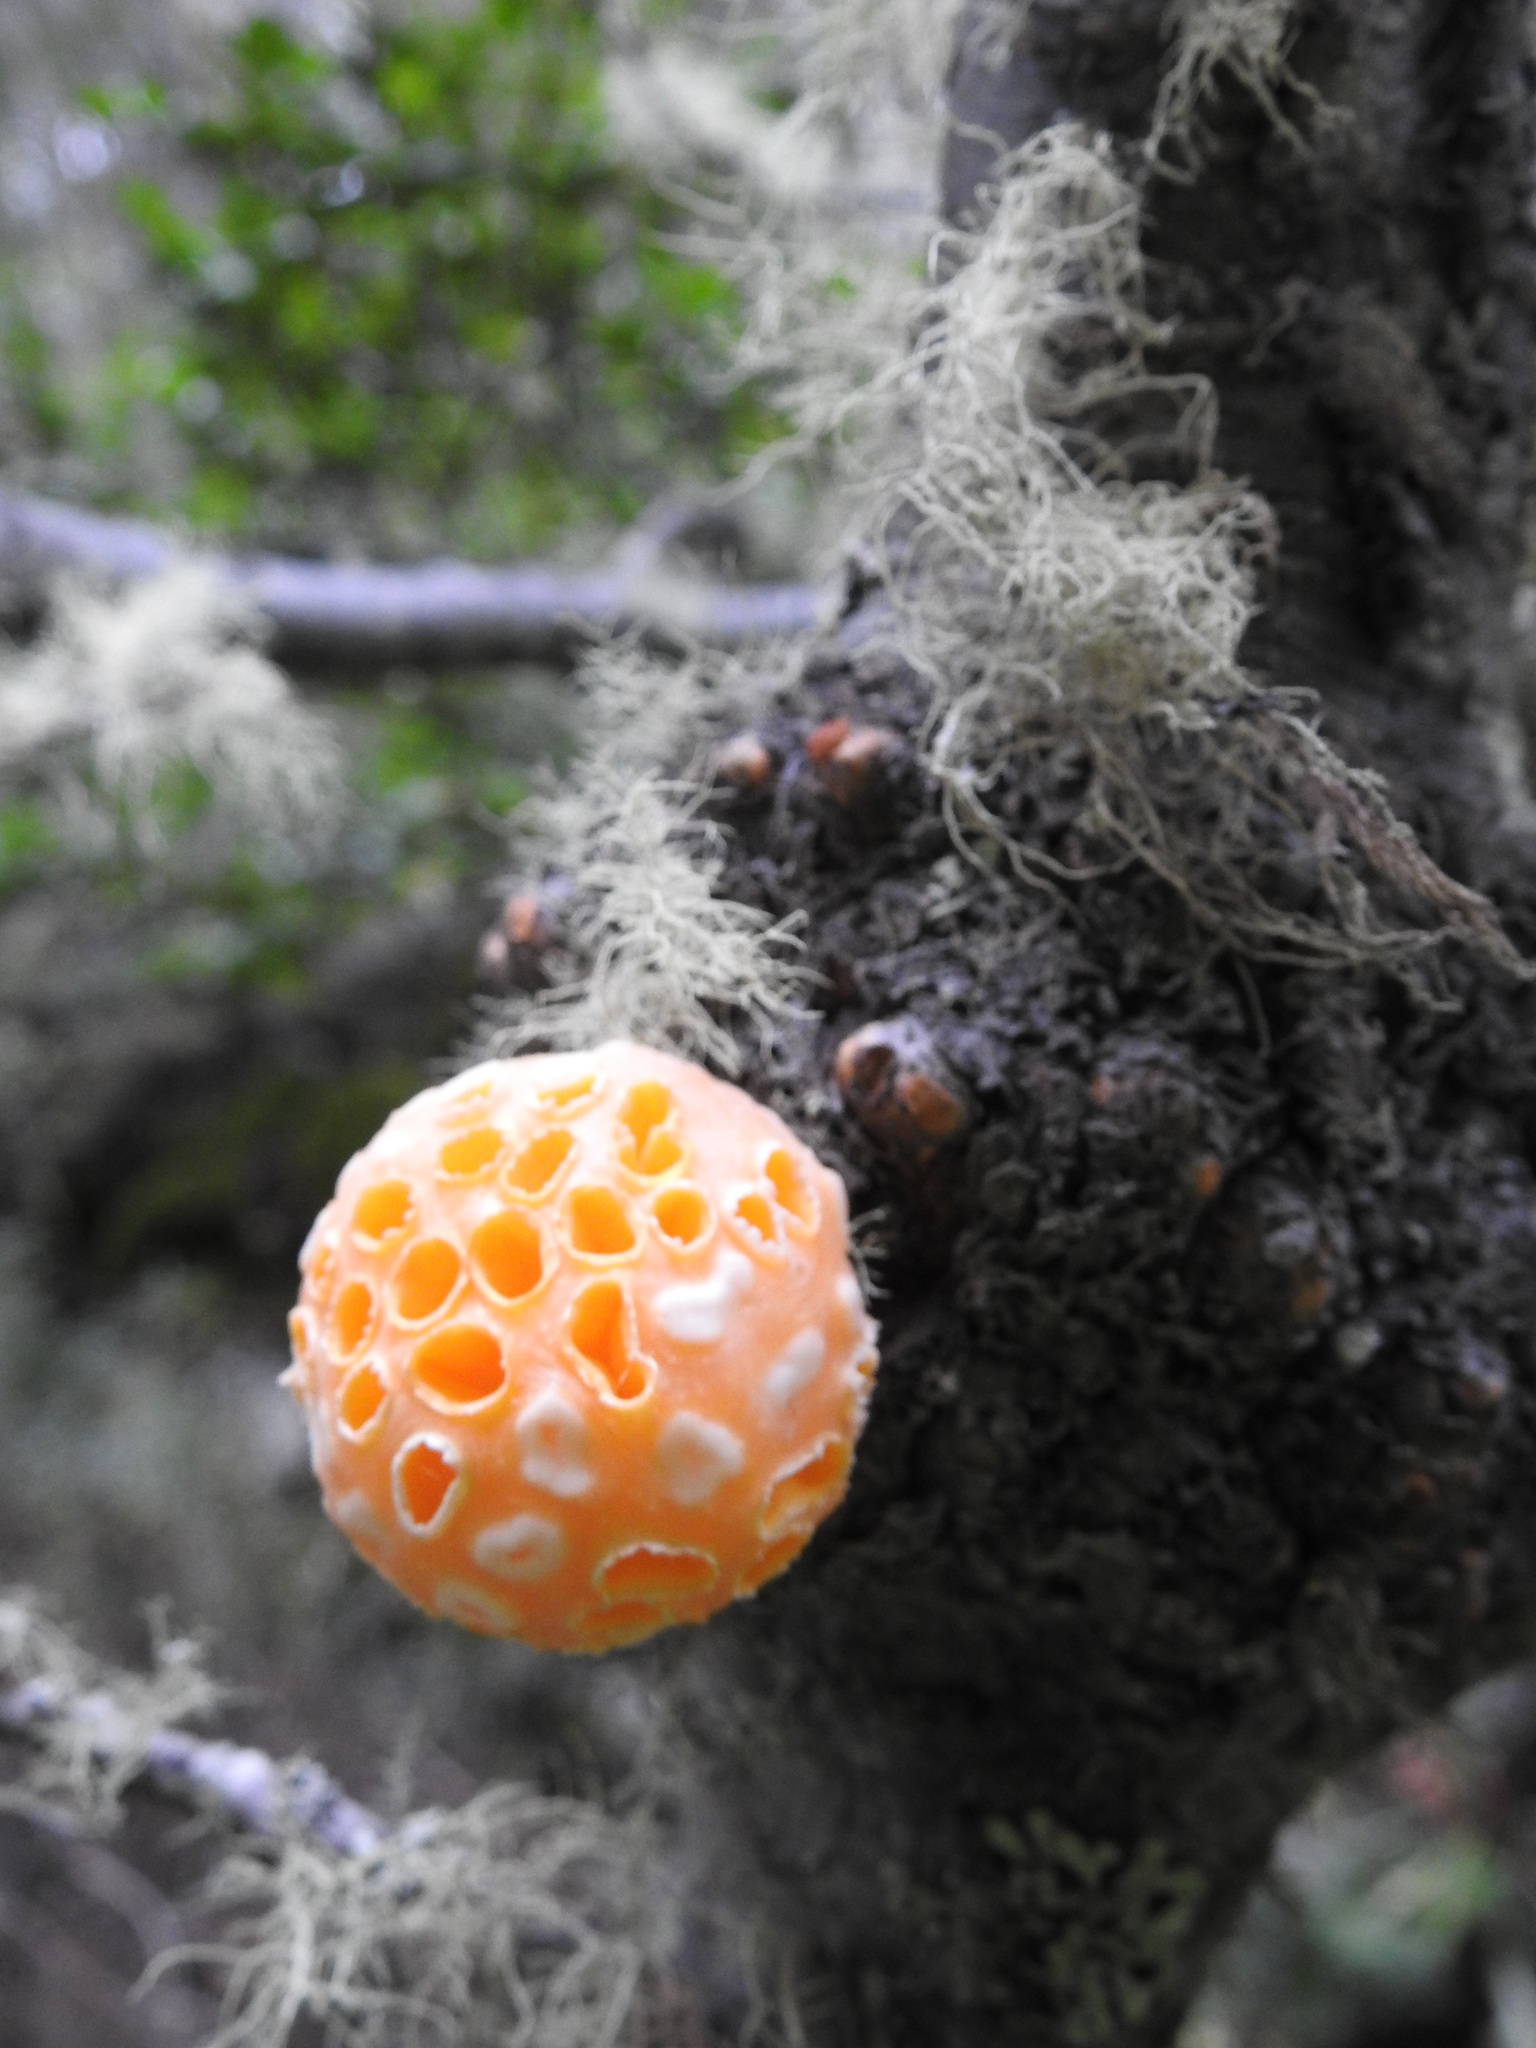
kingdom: Fungi
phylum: Ascomycota
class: Leotiomycetes
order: Cyttariales
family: Cyttariaceae
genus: Cyttaria
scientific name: Cyttaria hariotii
